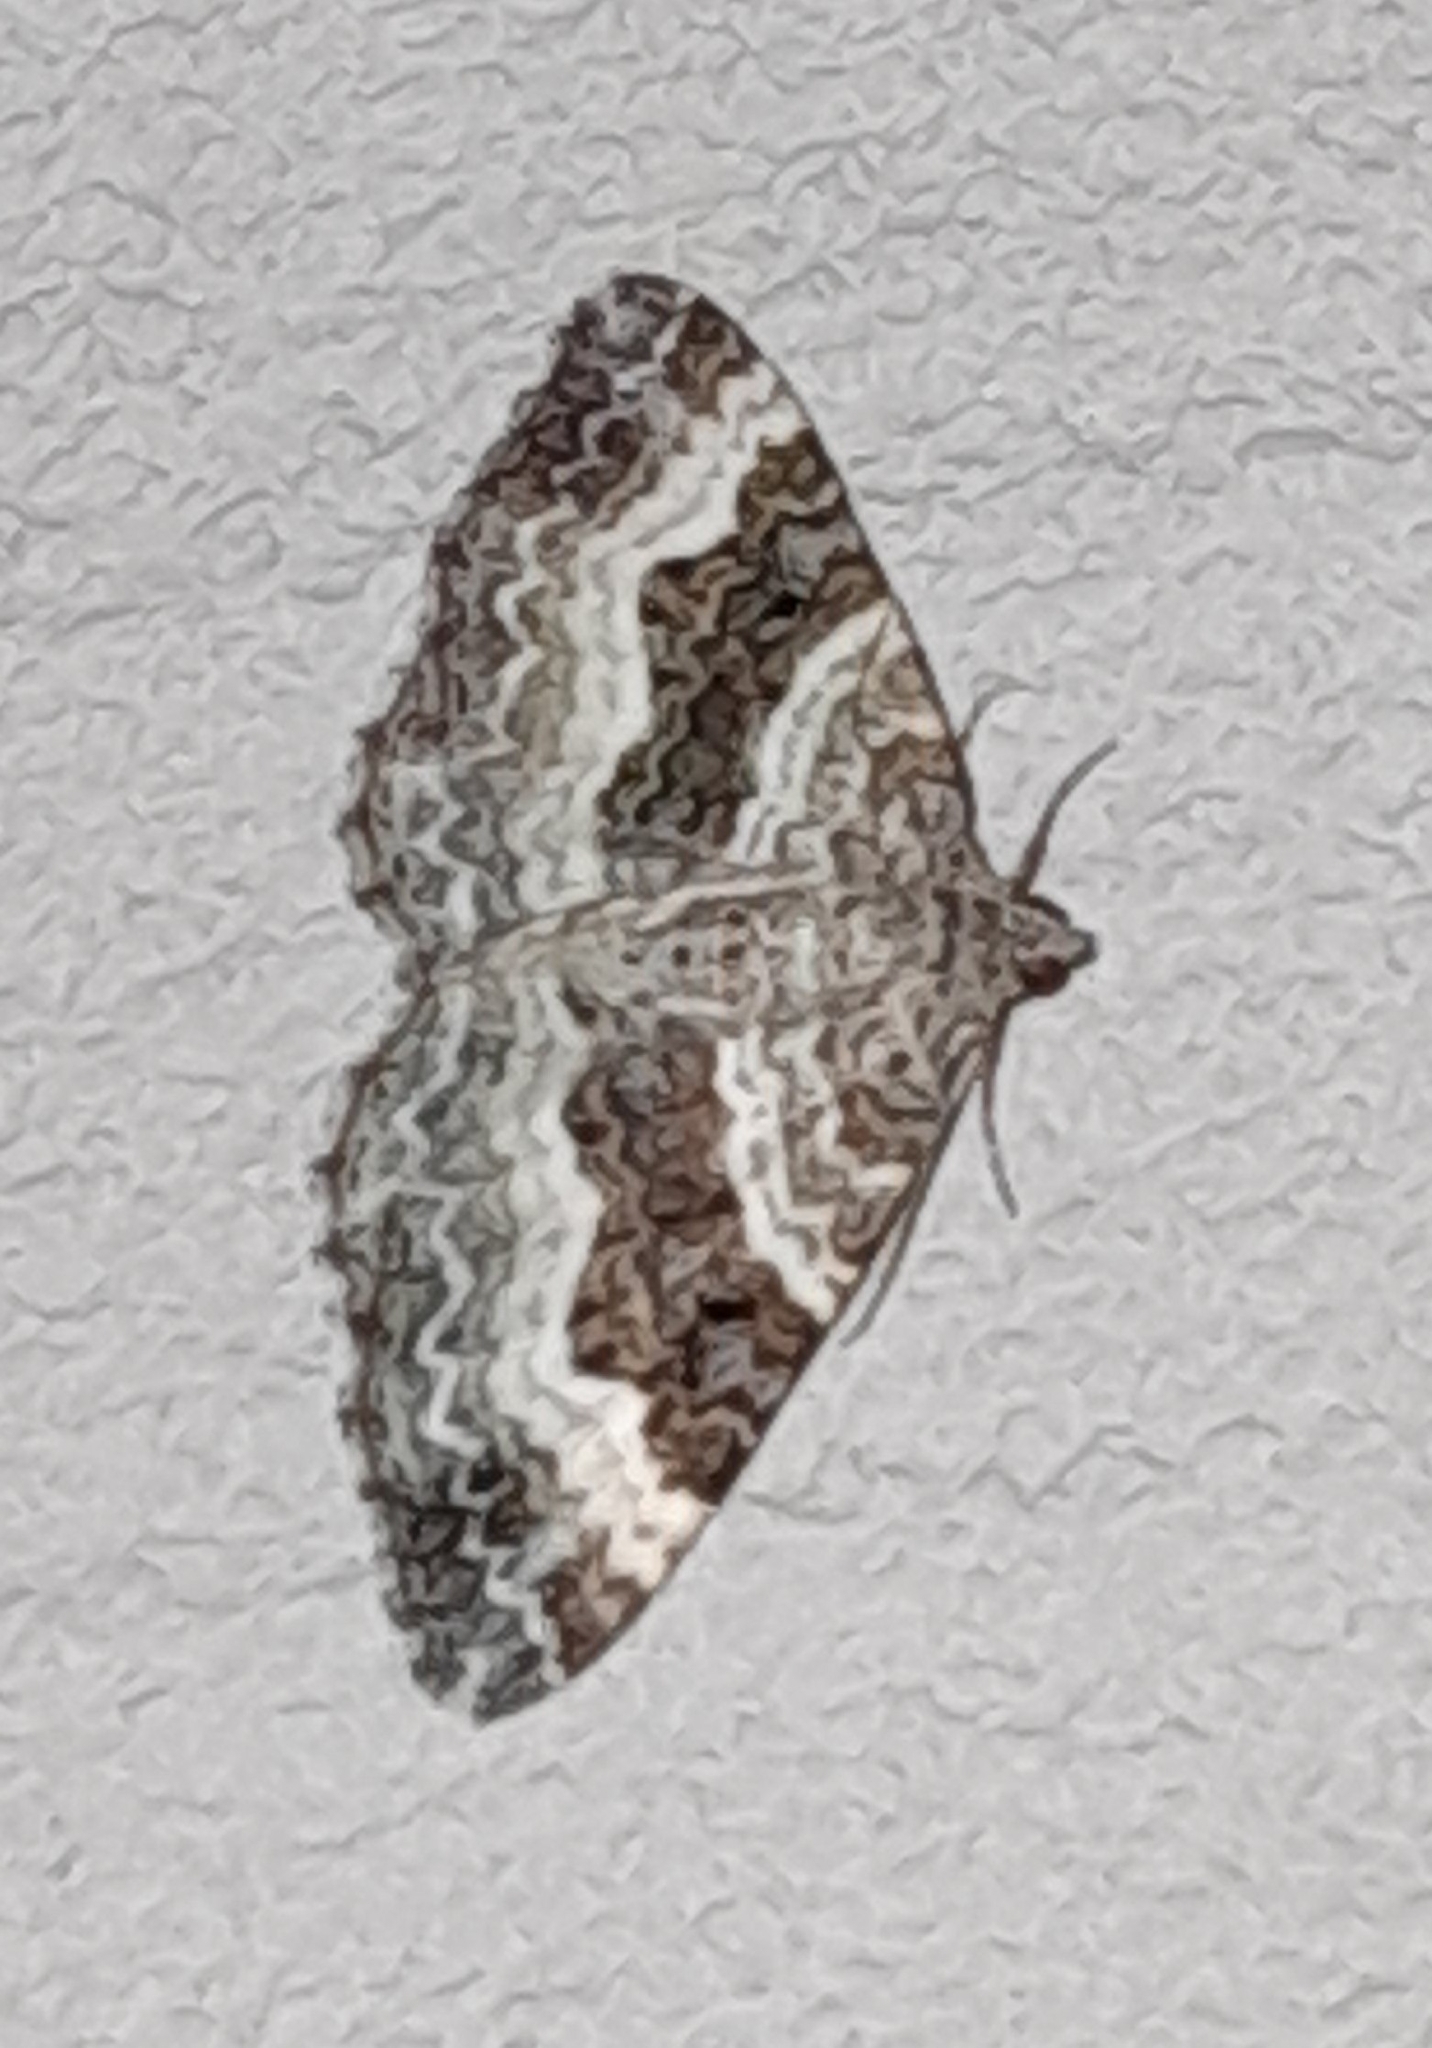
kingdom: Animalia
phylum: Arthropoda
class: Insecta
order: Lepidoptera
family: Geometridae
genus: Epirrhoe
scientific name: Epirrhoe alternata
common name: Common carpet
